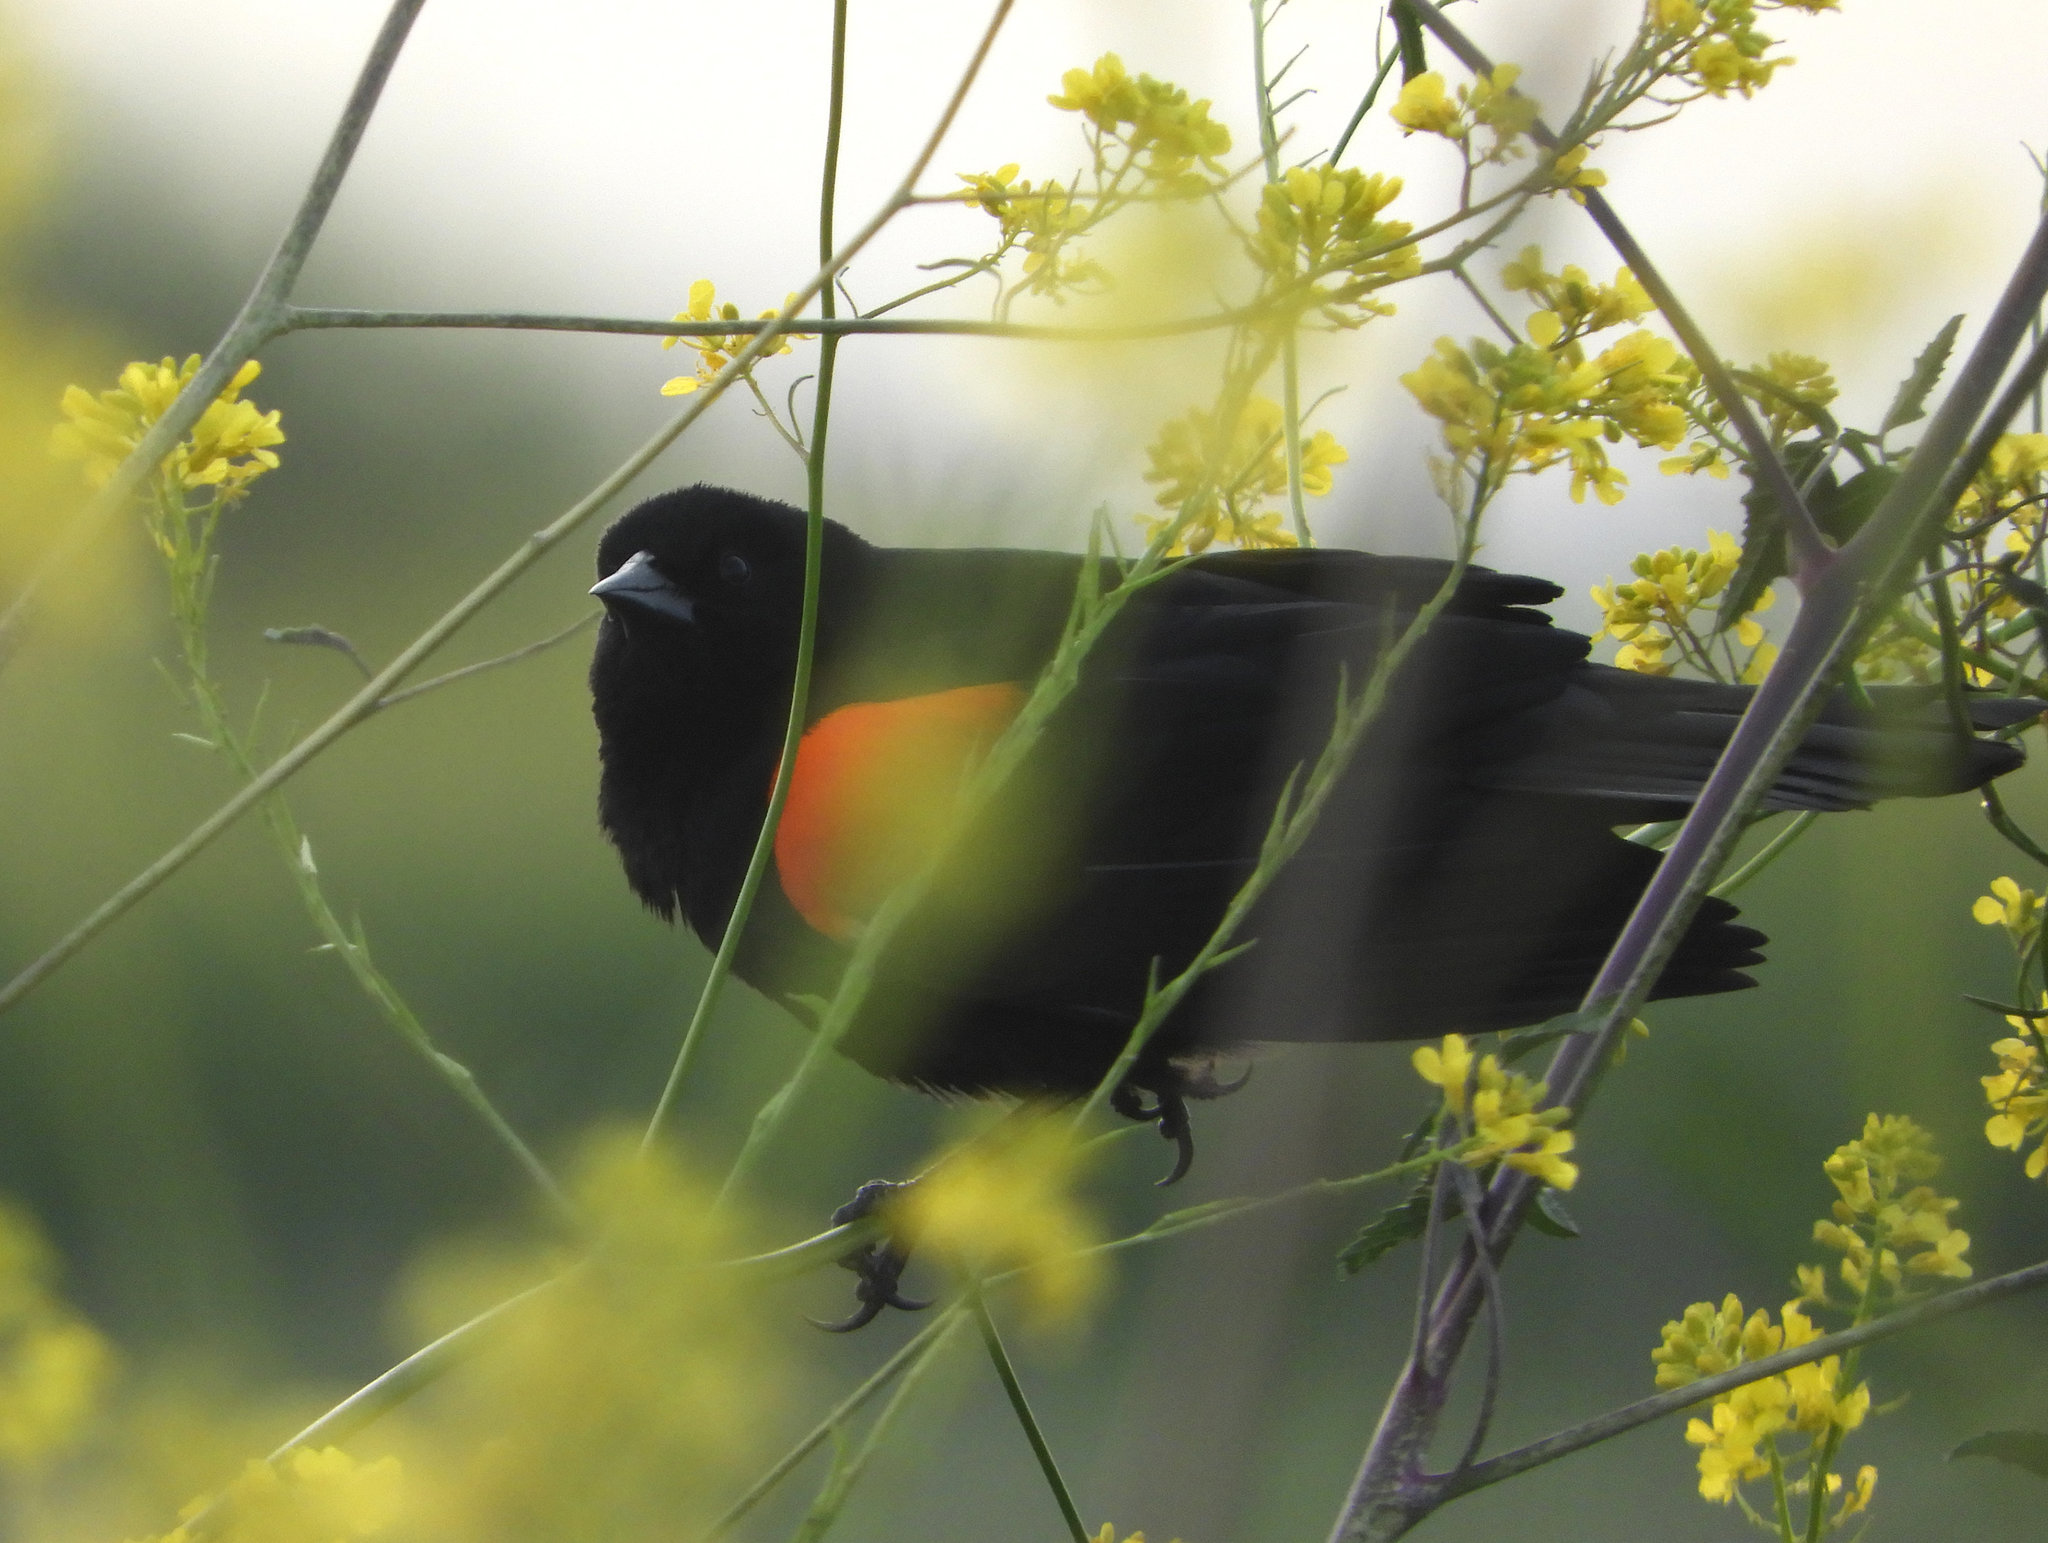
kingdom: Animalia
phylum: Chordata
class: Aves
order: Passeriformes
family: Icteridae
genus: Agelaius
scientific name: Agelaius phoeniceus
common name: Red-winged blackbird
